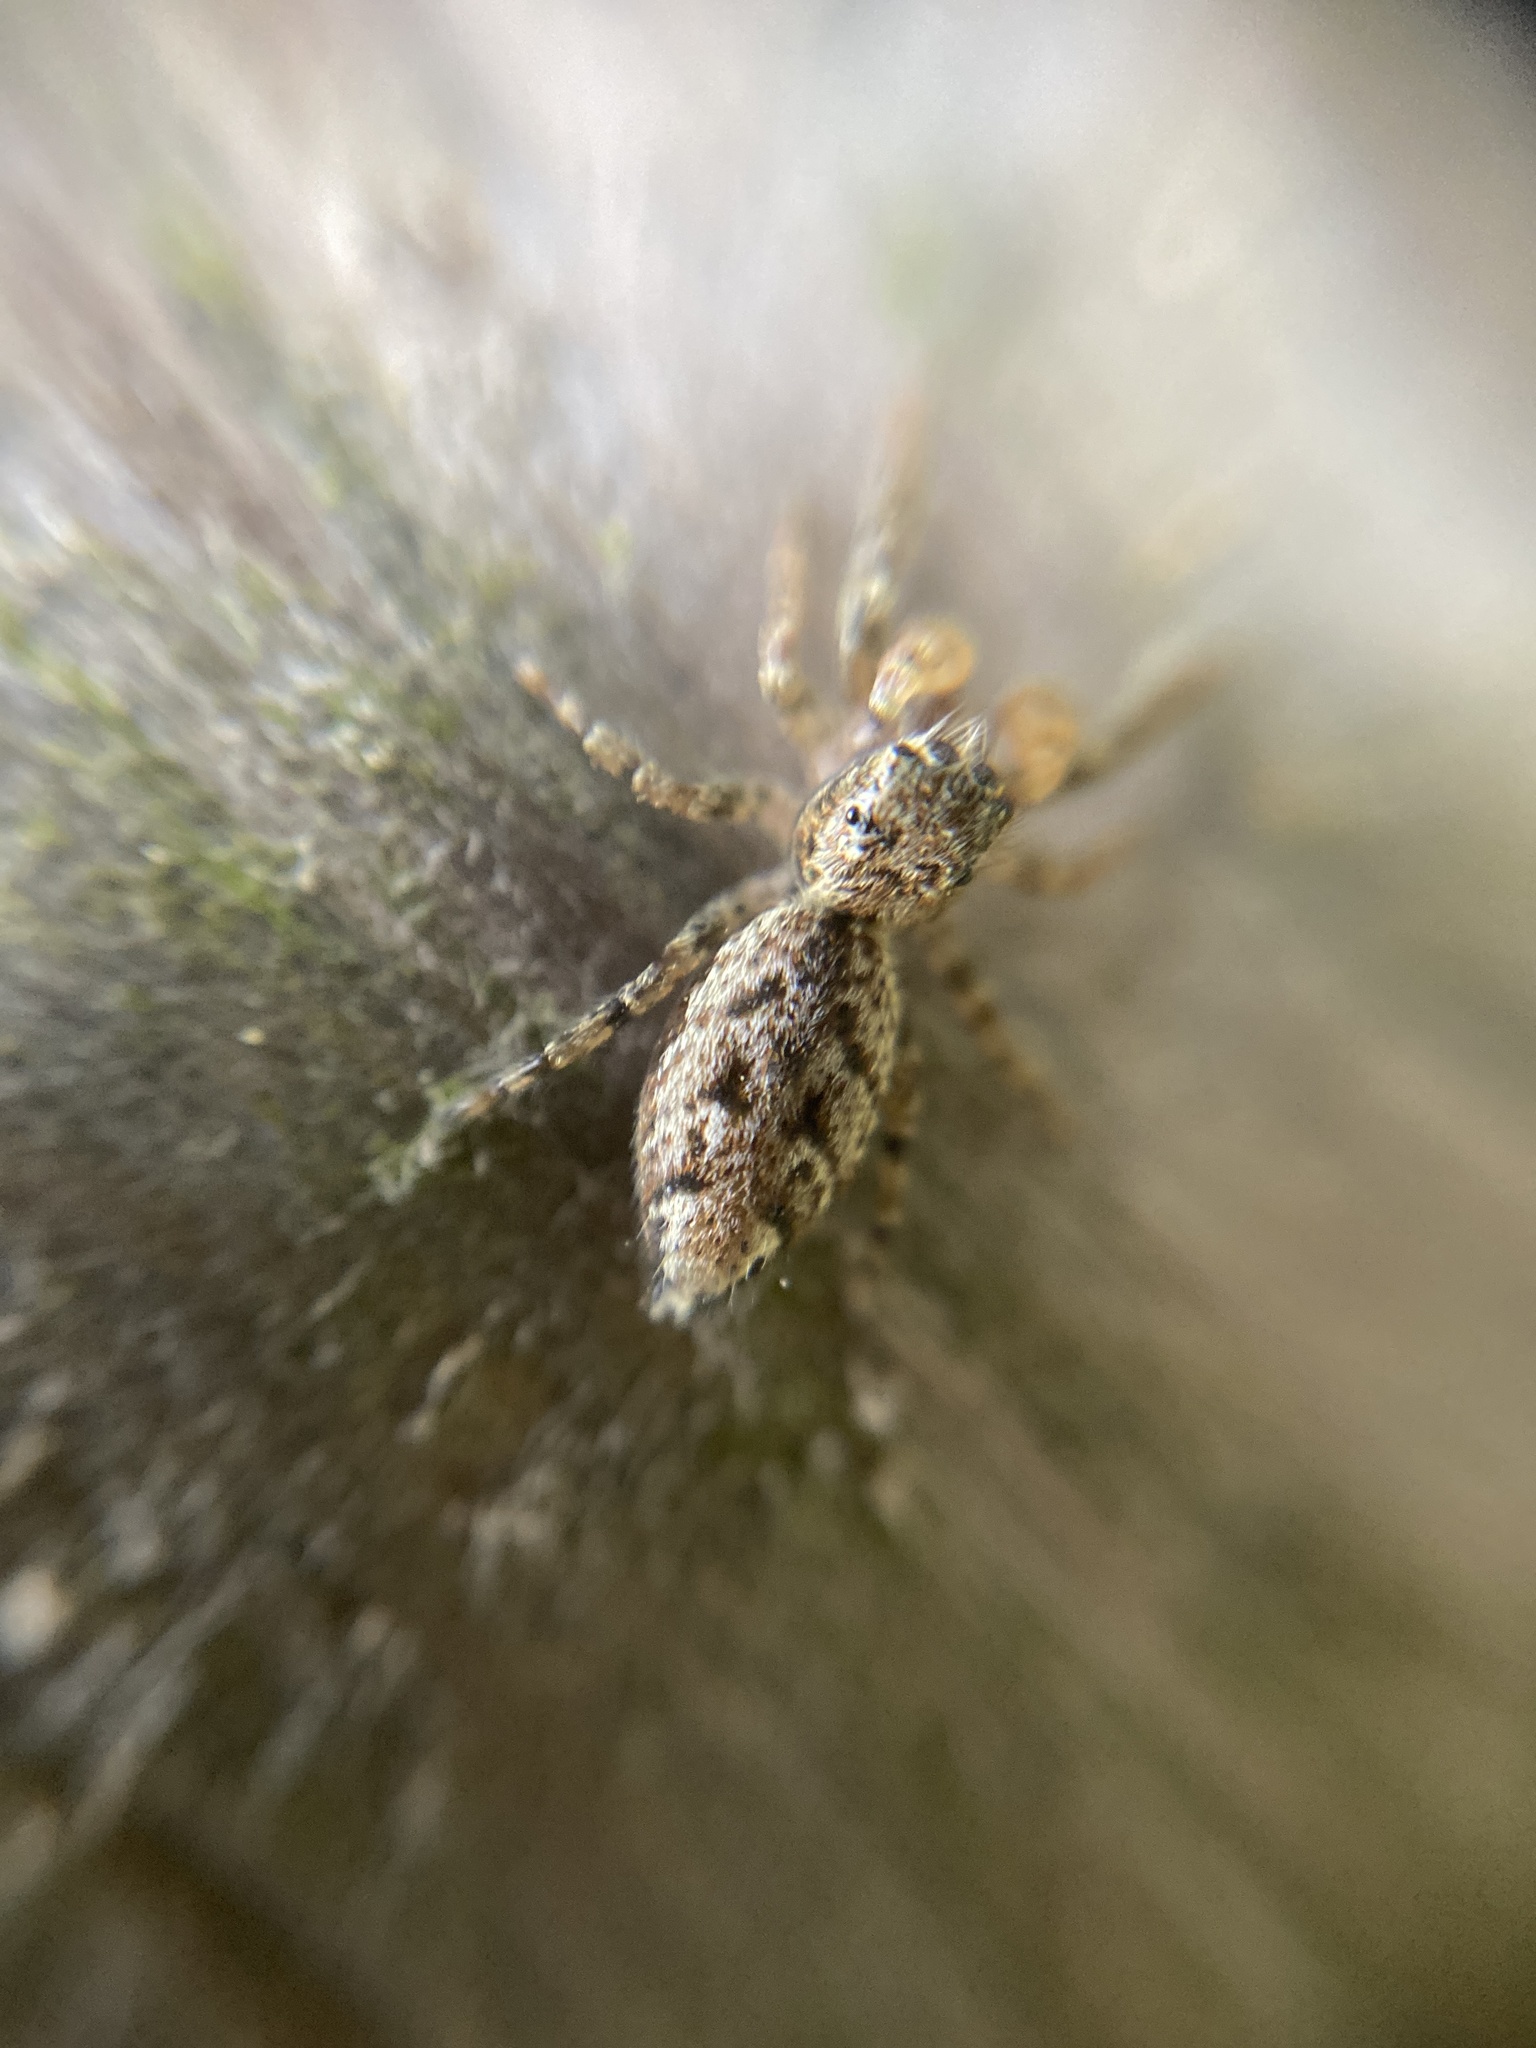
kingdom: Animalia
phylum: Arthropoda
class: Arachnida
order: Araneae
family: Salticidae
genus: Marpissa
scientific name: Marpissa muscosa
